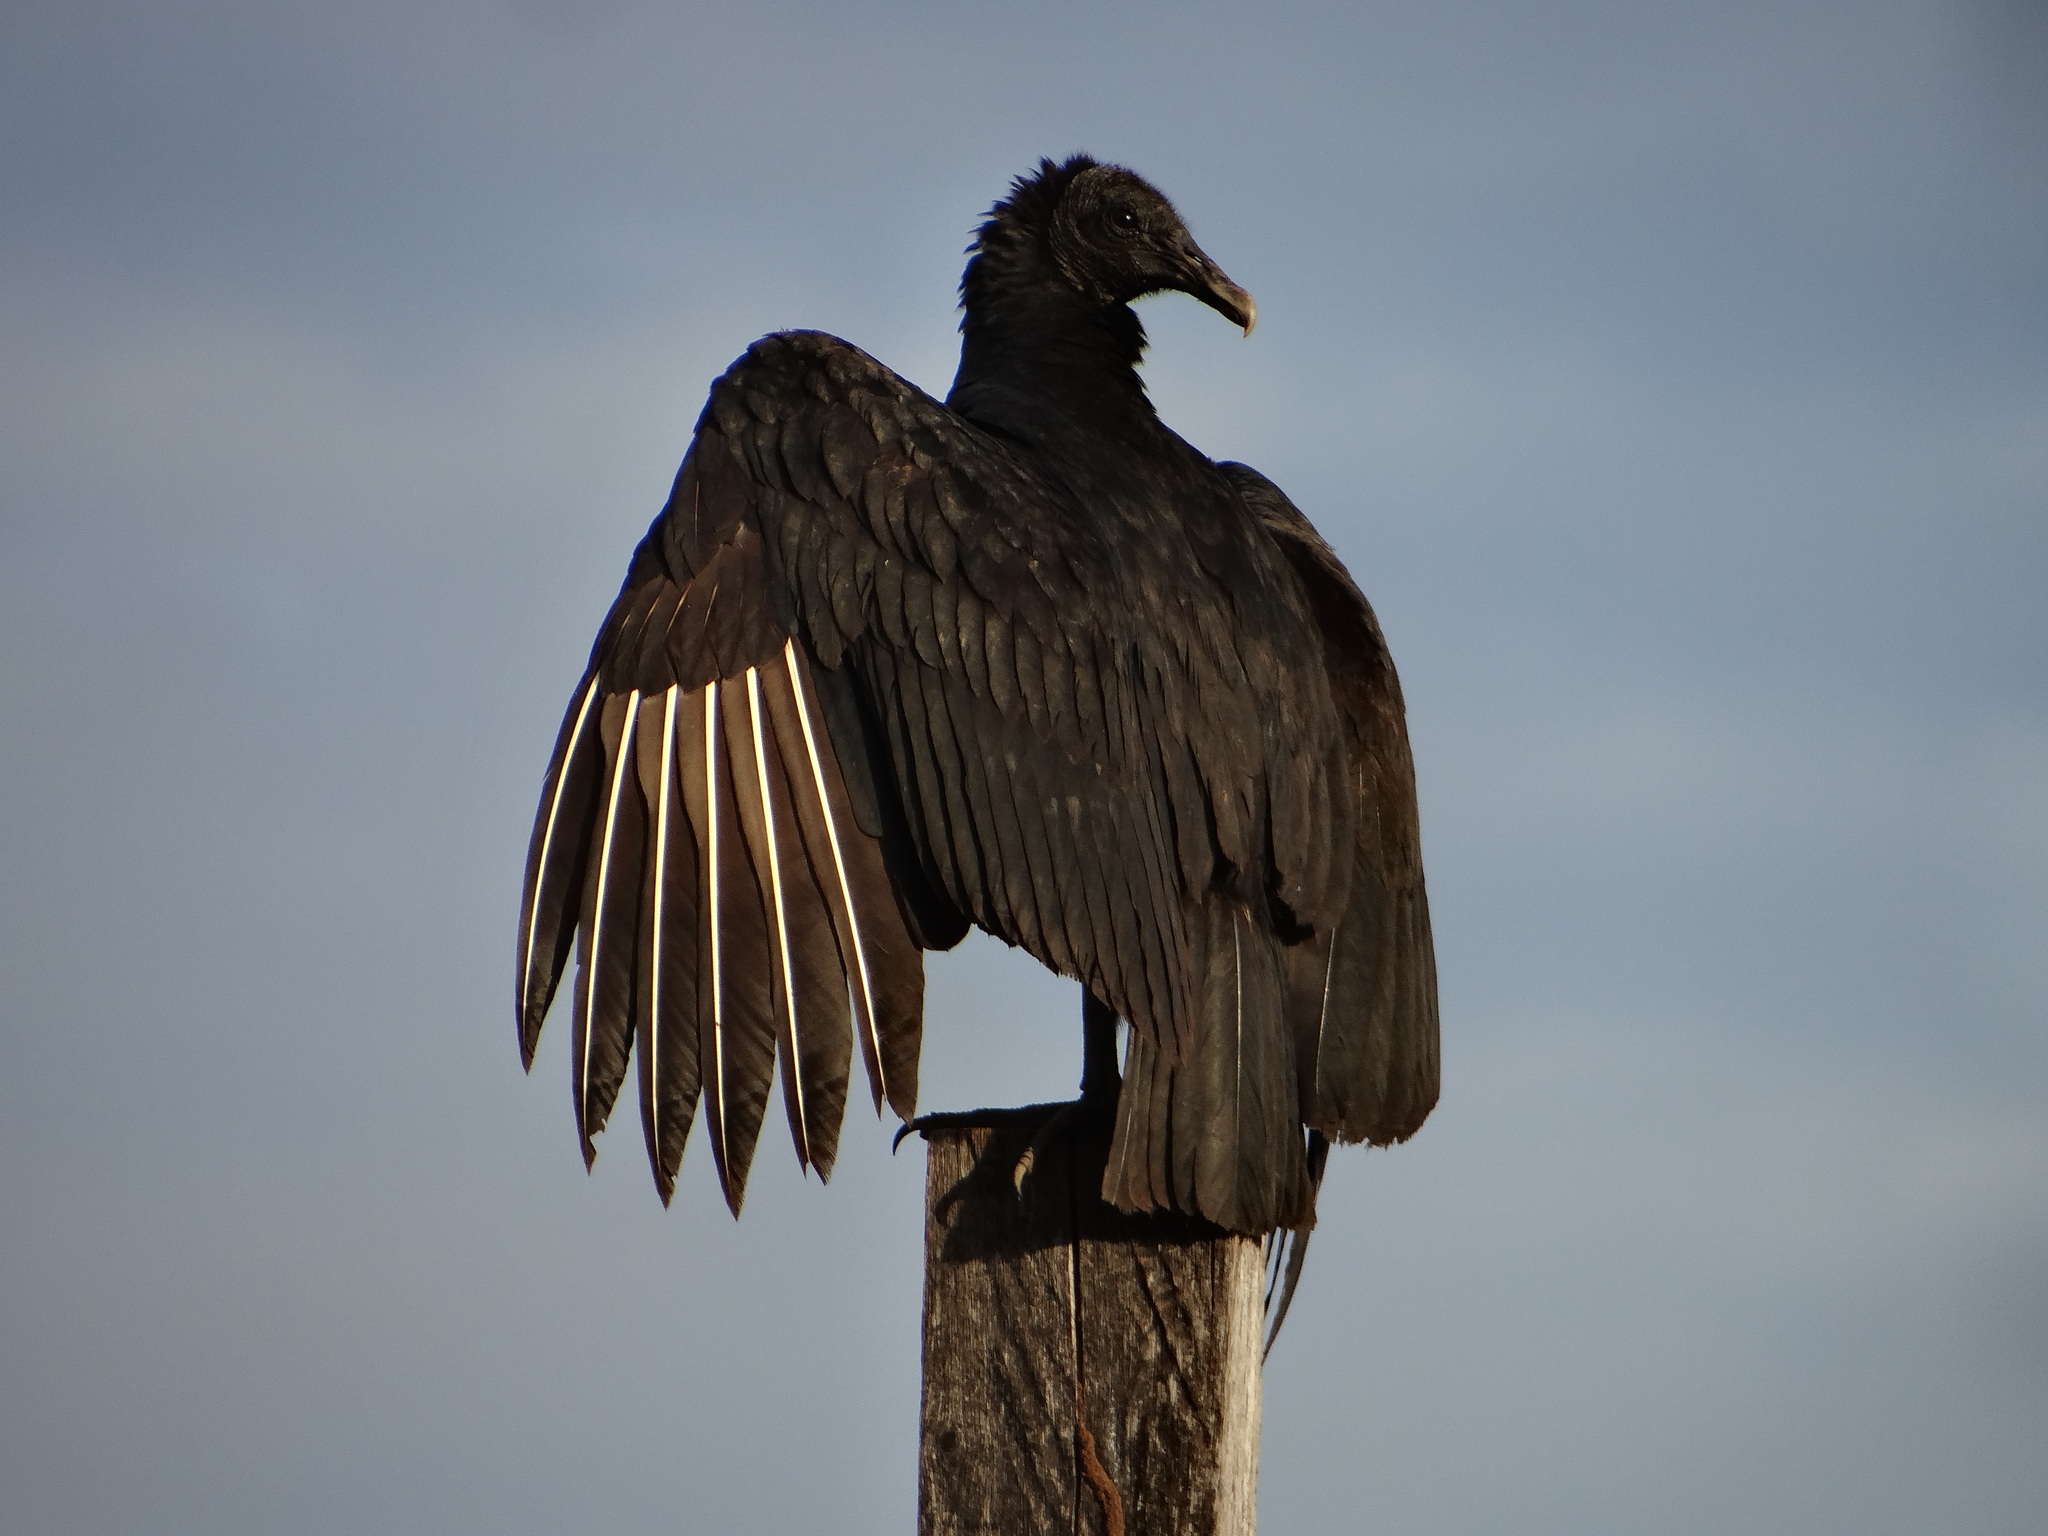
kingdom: Animalia
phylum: Chordata
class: Aves
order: Accipitriformes
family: Cathartidae
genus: Coragyps
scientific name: Coragyps atratus
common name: Black vulture
